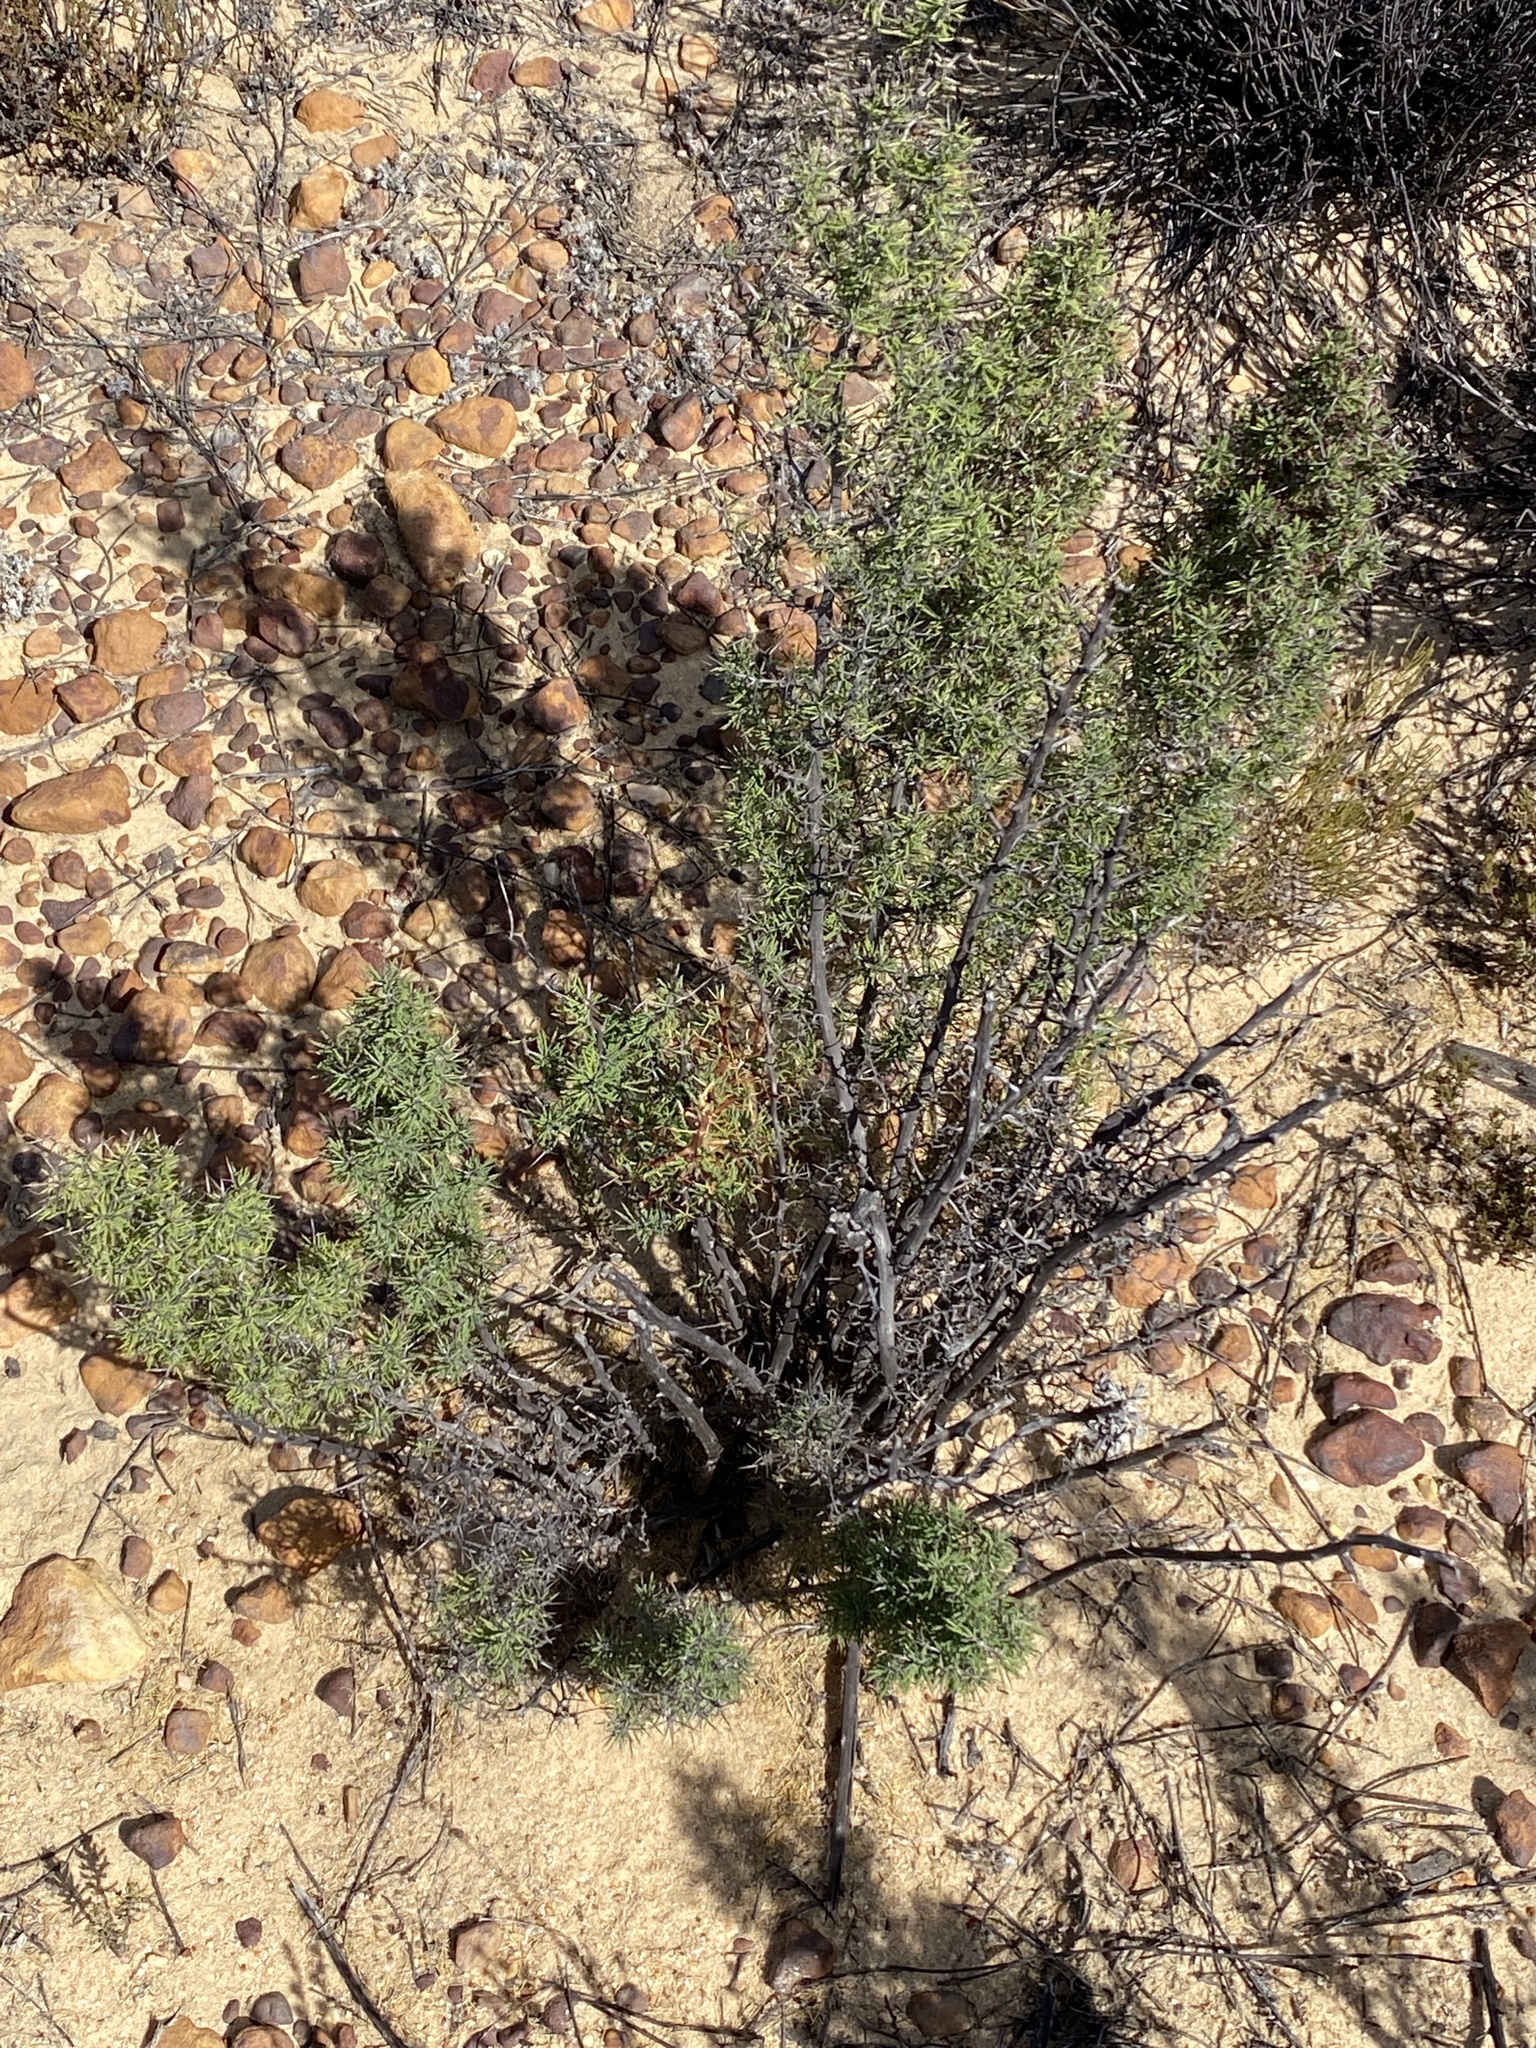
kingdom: Plantae
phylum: Tracheophyta
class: Liliopsida
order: Asparagales
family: Asparagaceae
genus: Asparagus
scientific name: Asparagus capensis
